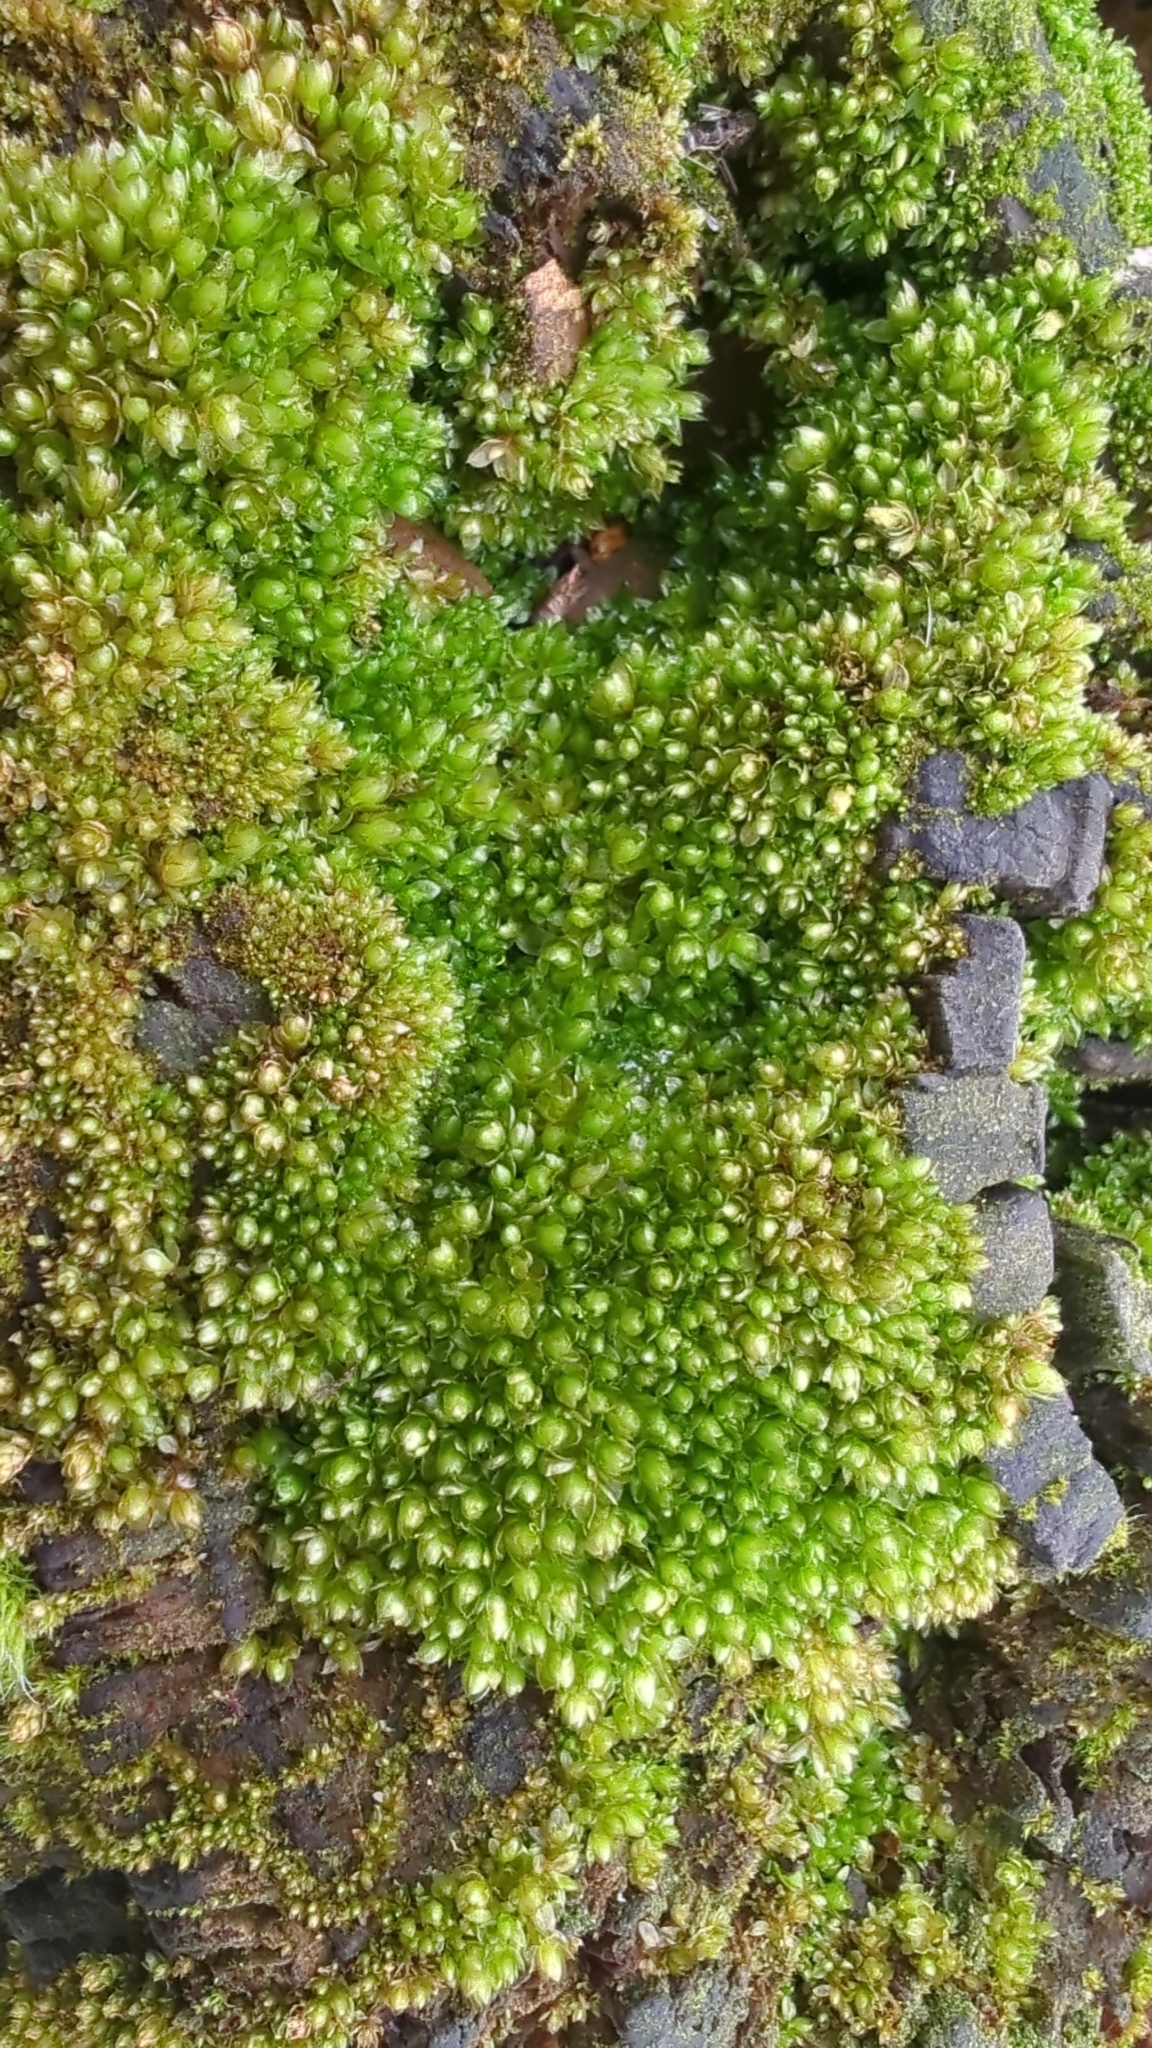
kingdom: Plantae
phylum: Bryophyta
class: Bryopsida
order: Bryales
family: Bryaceae
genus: Rosulabryum
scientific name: Rosulabryum capillare
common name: Capillary thread-moss
